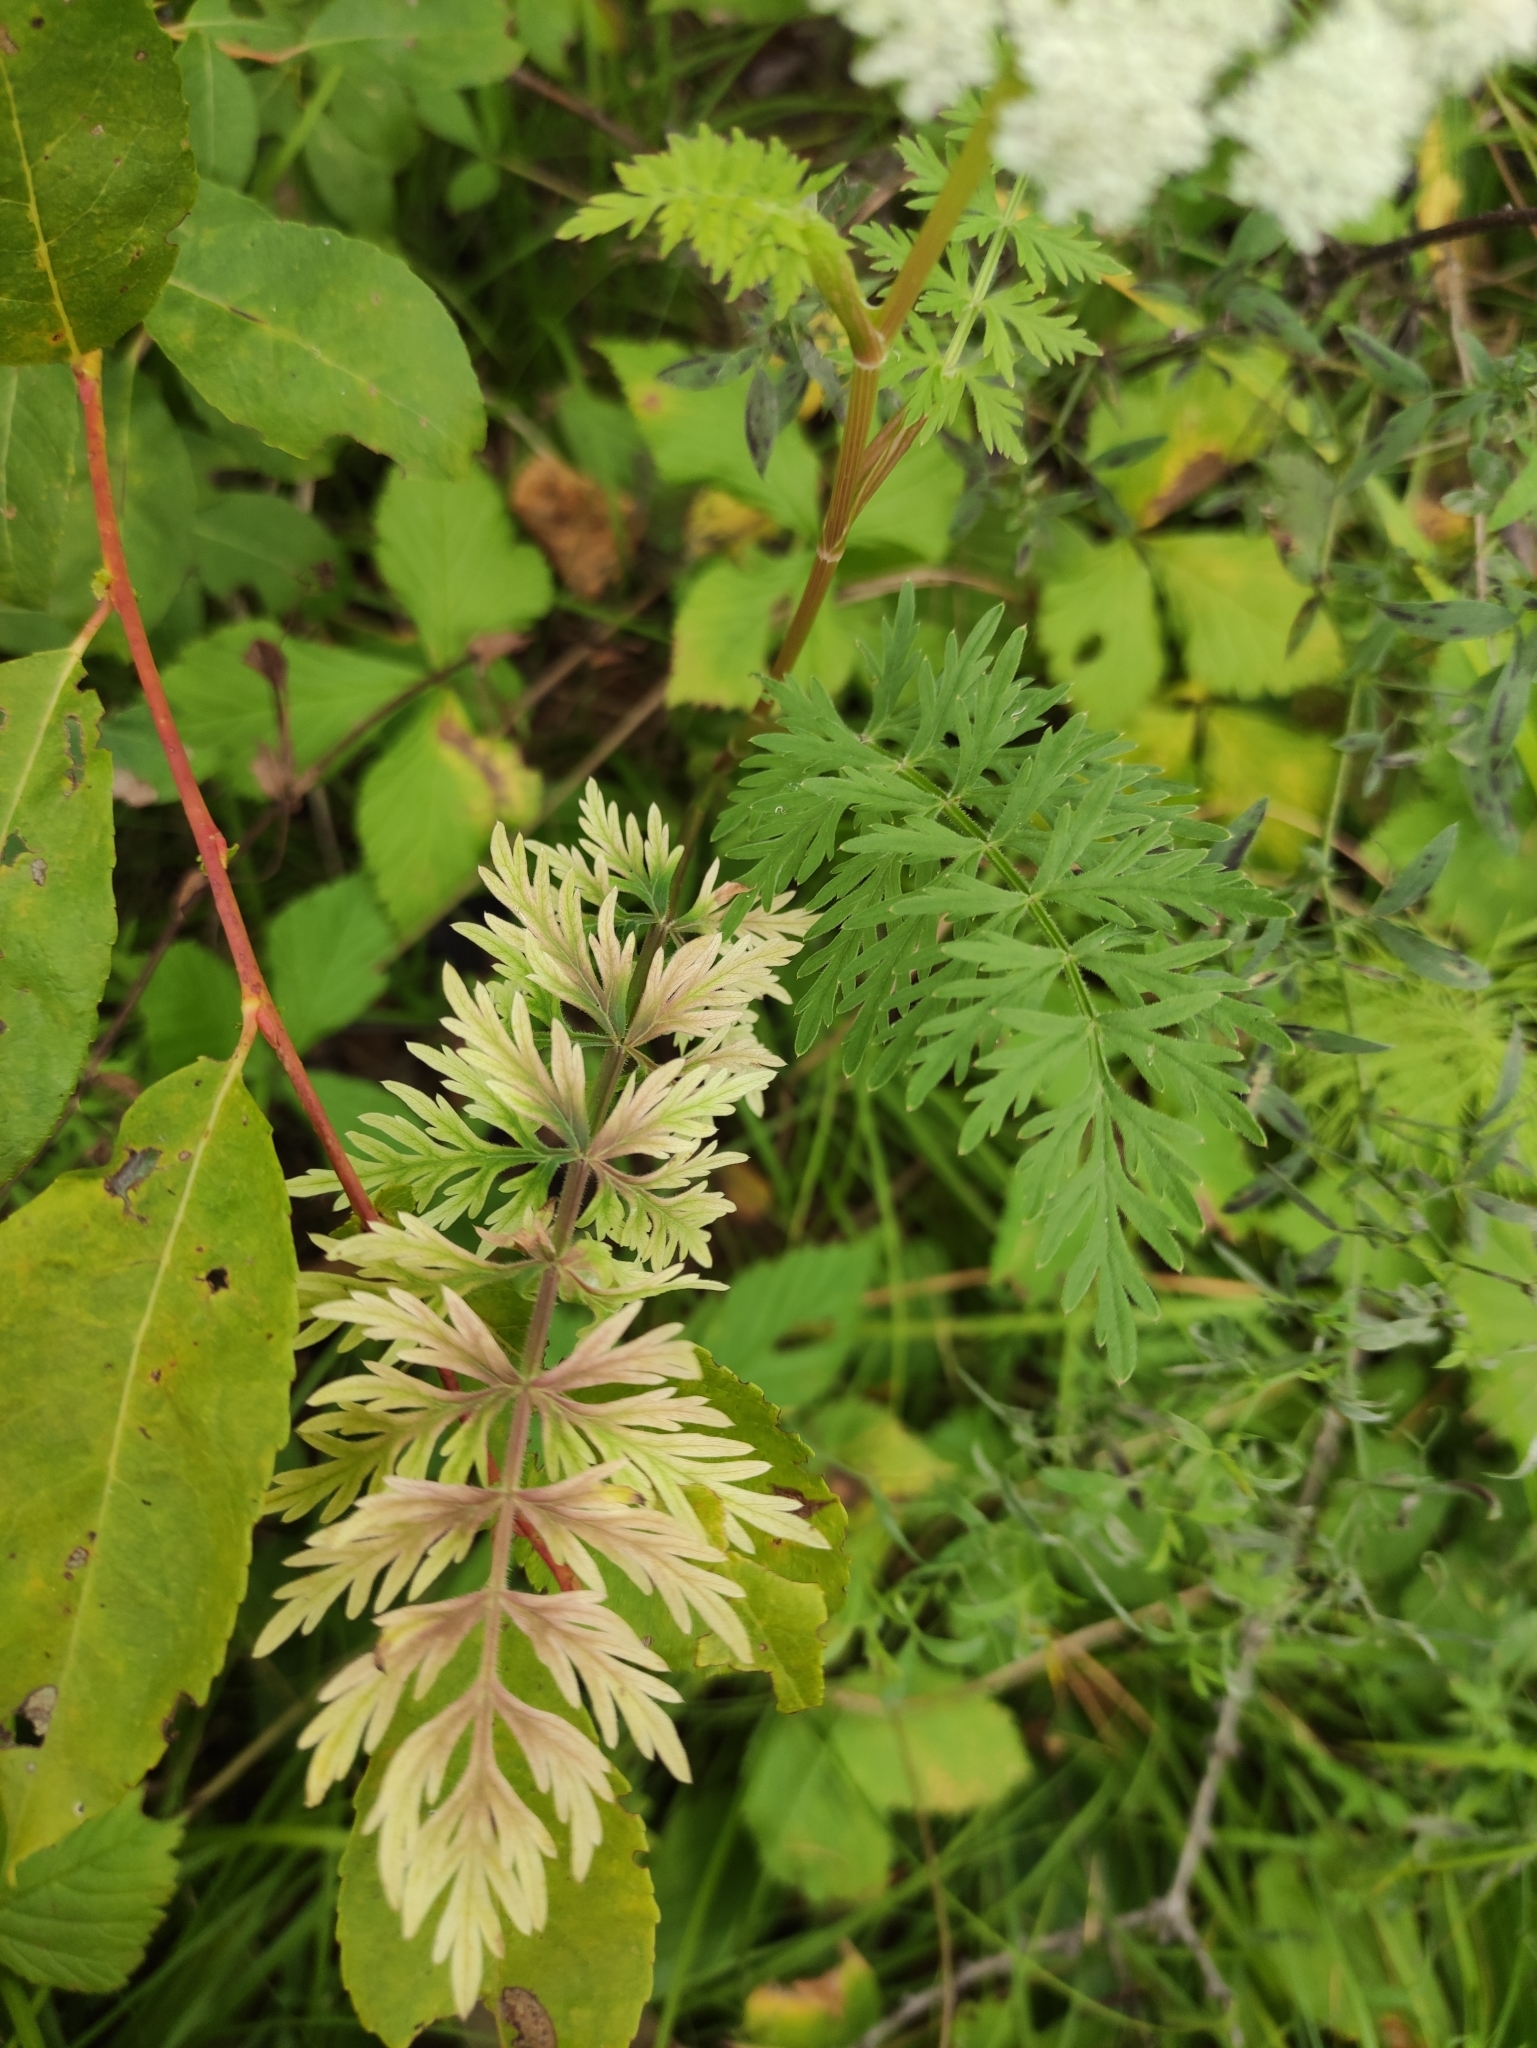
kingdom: Plantae
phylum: Tracheophyta
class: Magnoliopsida
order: Apiales
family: Apiaceae
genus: Seseli
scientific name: Seseli condensatum
